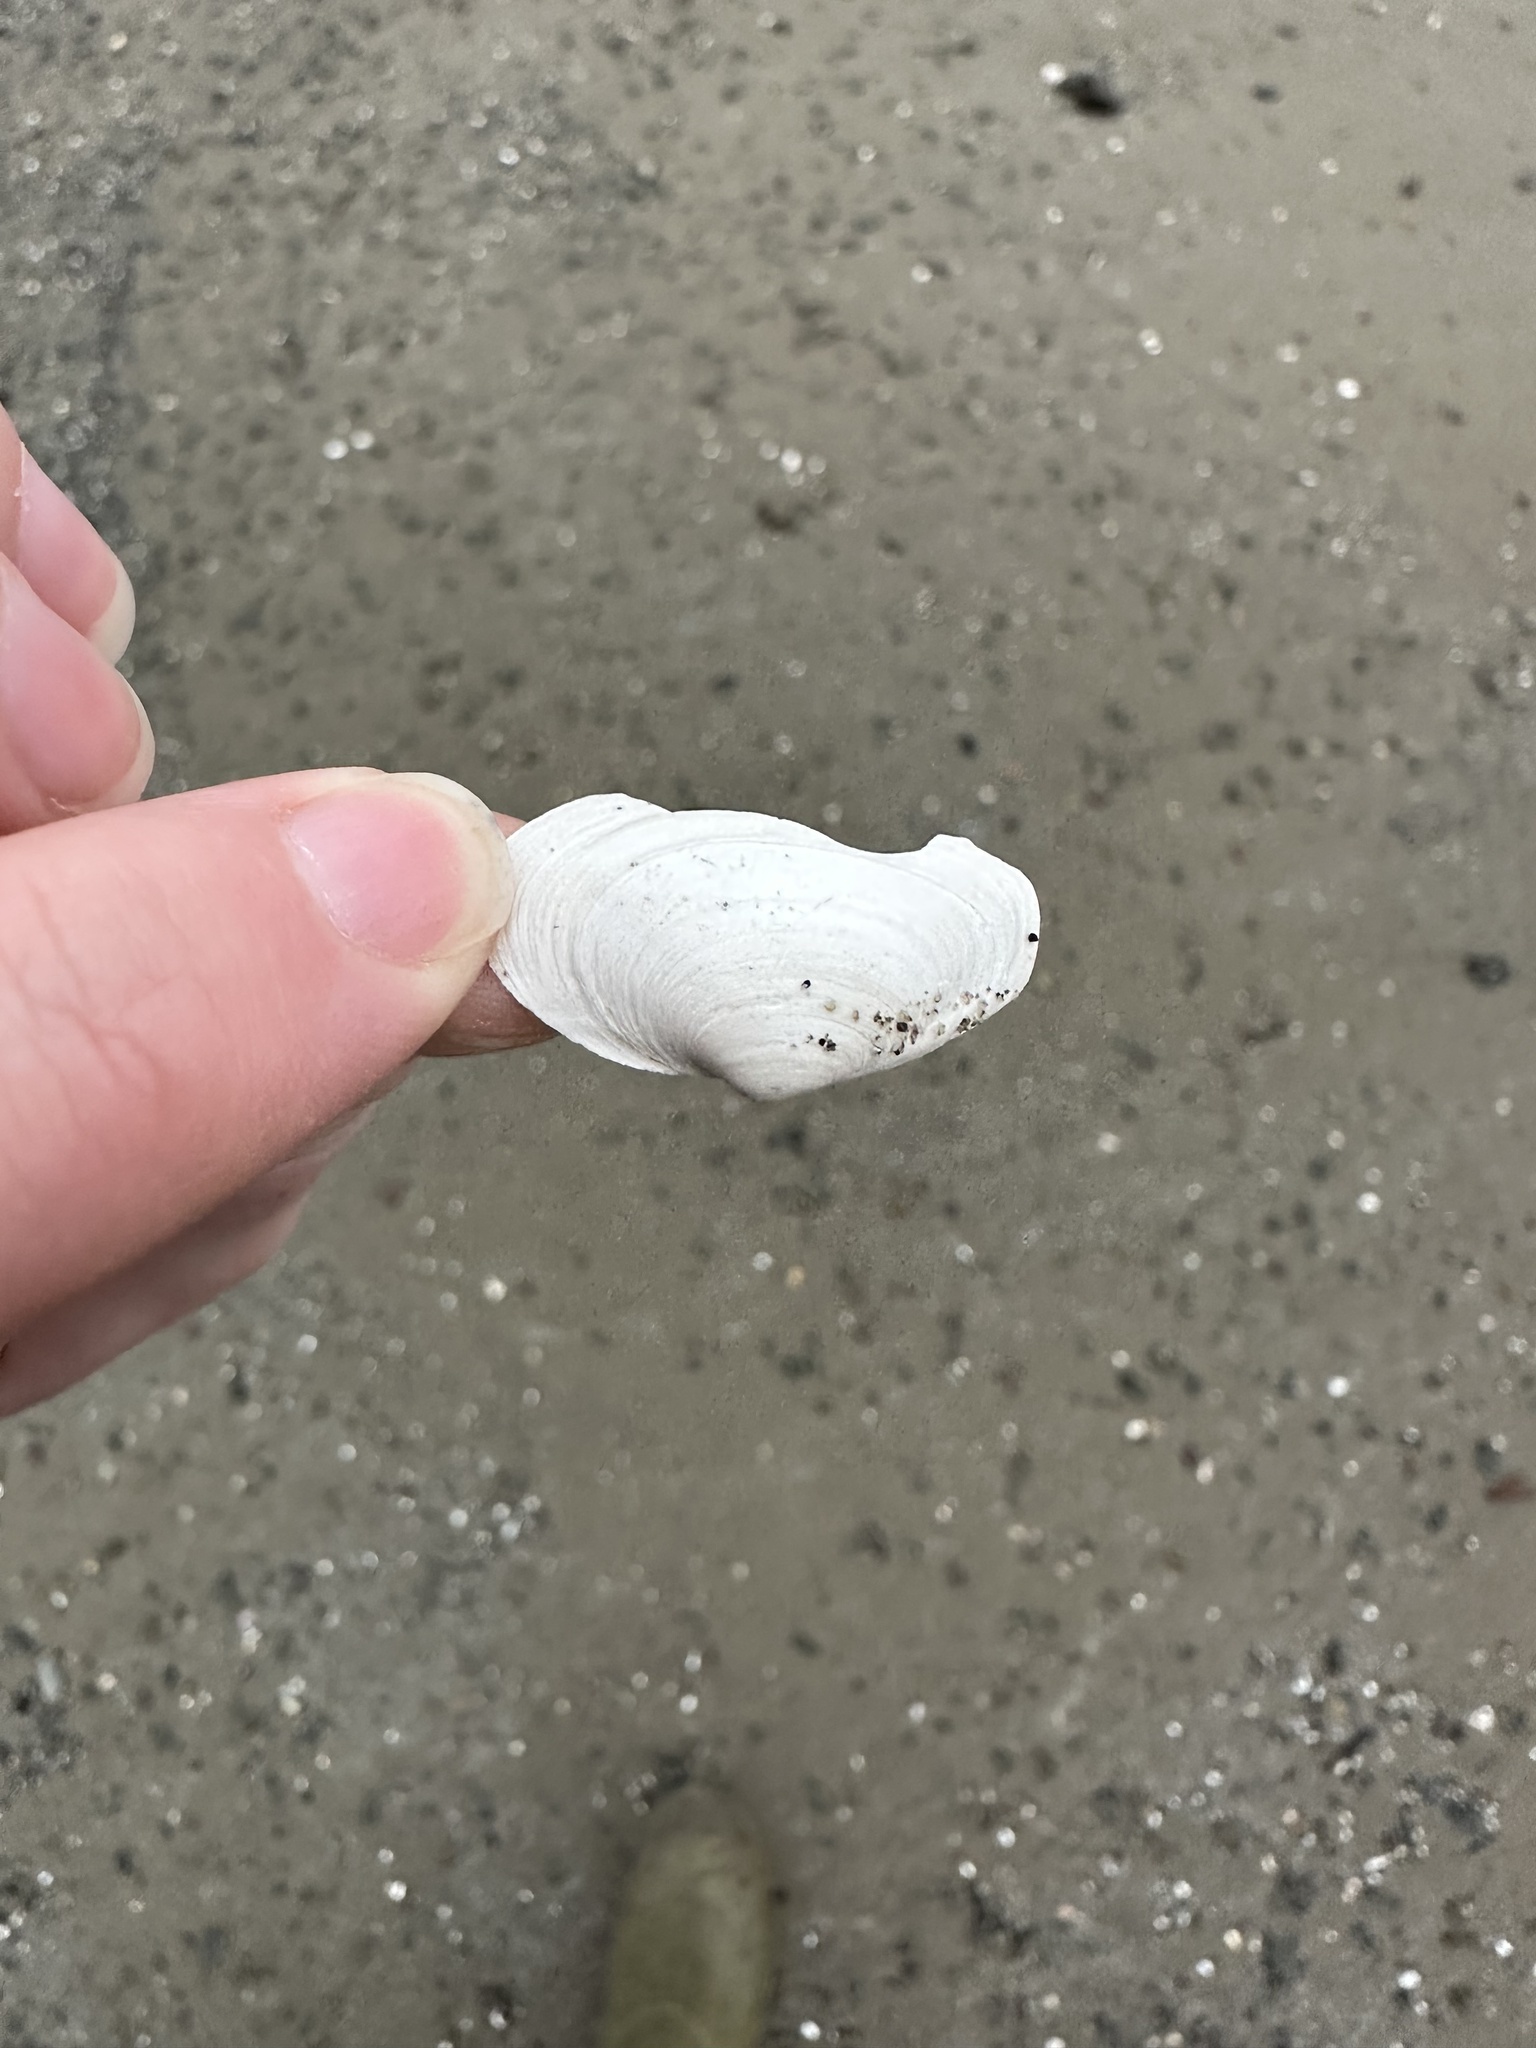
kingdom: Animalia
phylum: Mollusca
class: Bivalvia
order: Myida
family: Myidae
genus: Mya
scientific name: Mya arenaria
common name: Soft-shelled clam
